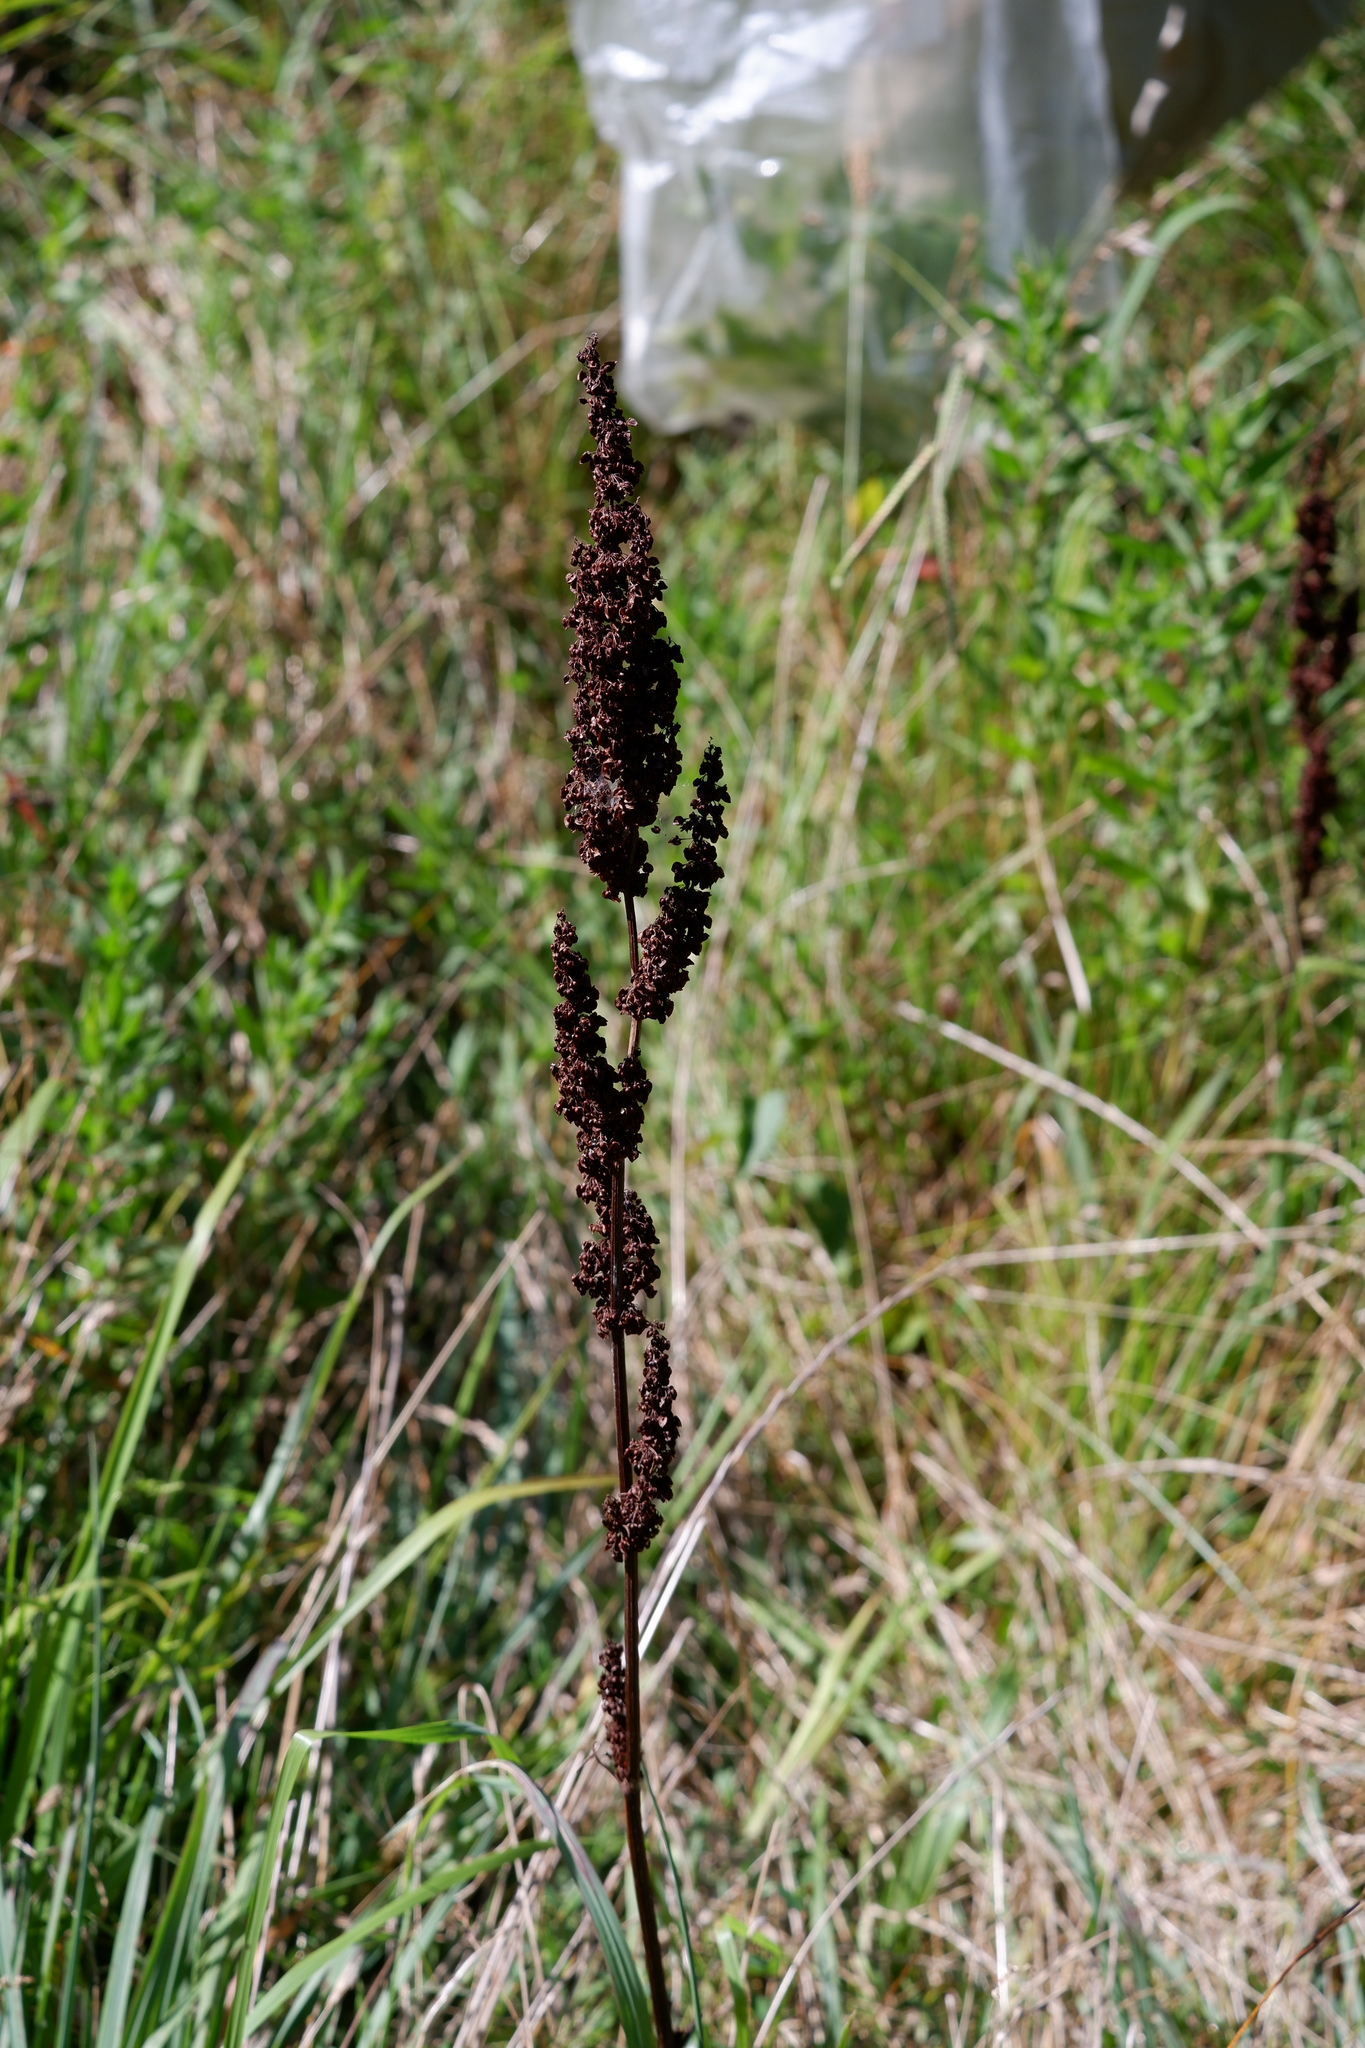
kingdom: Plantae
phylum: Tracheophyta
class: Magnoliopsida
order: Caryophyllales
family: Polygonaceae
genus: Rumex
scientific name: Rumex crispus
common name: Curled dock
